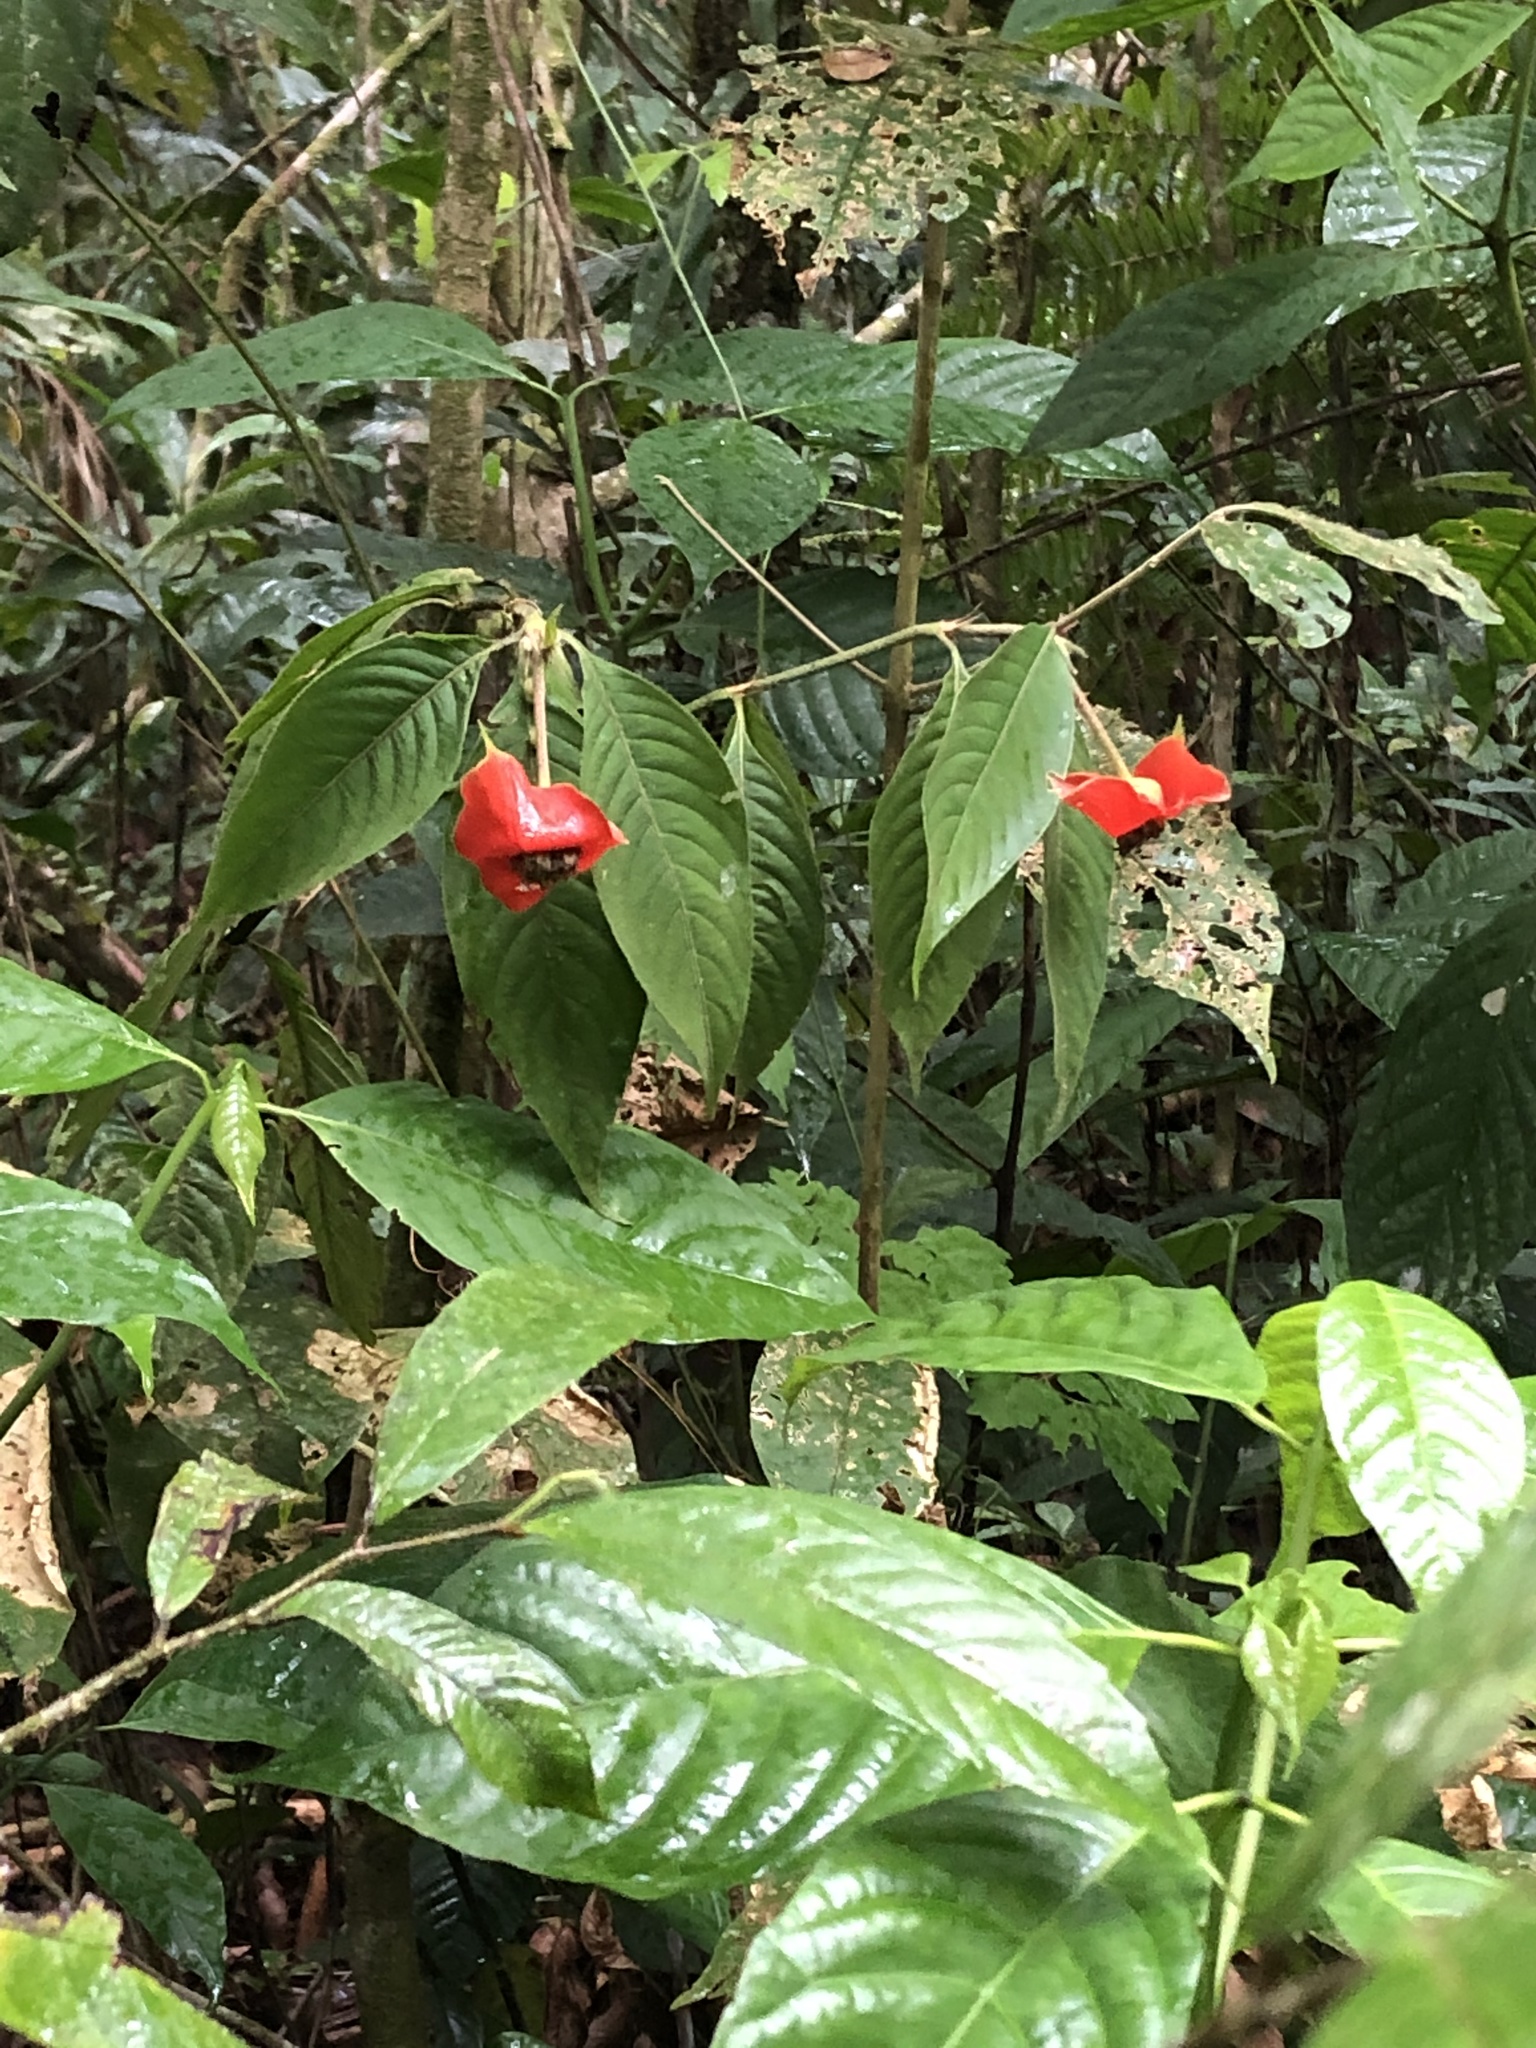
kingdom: Plantae
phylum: Tracheophyta
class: Magnoliopsida
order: Gentianales
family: Rubiaceae
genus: Palicourea
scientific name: Palicourea tomentosa
